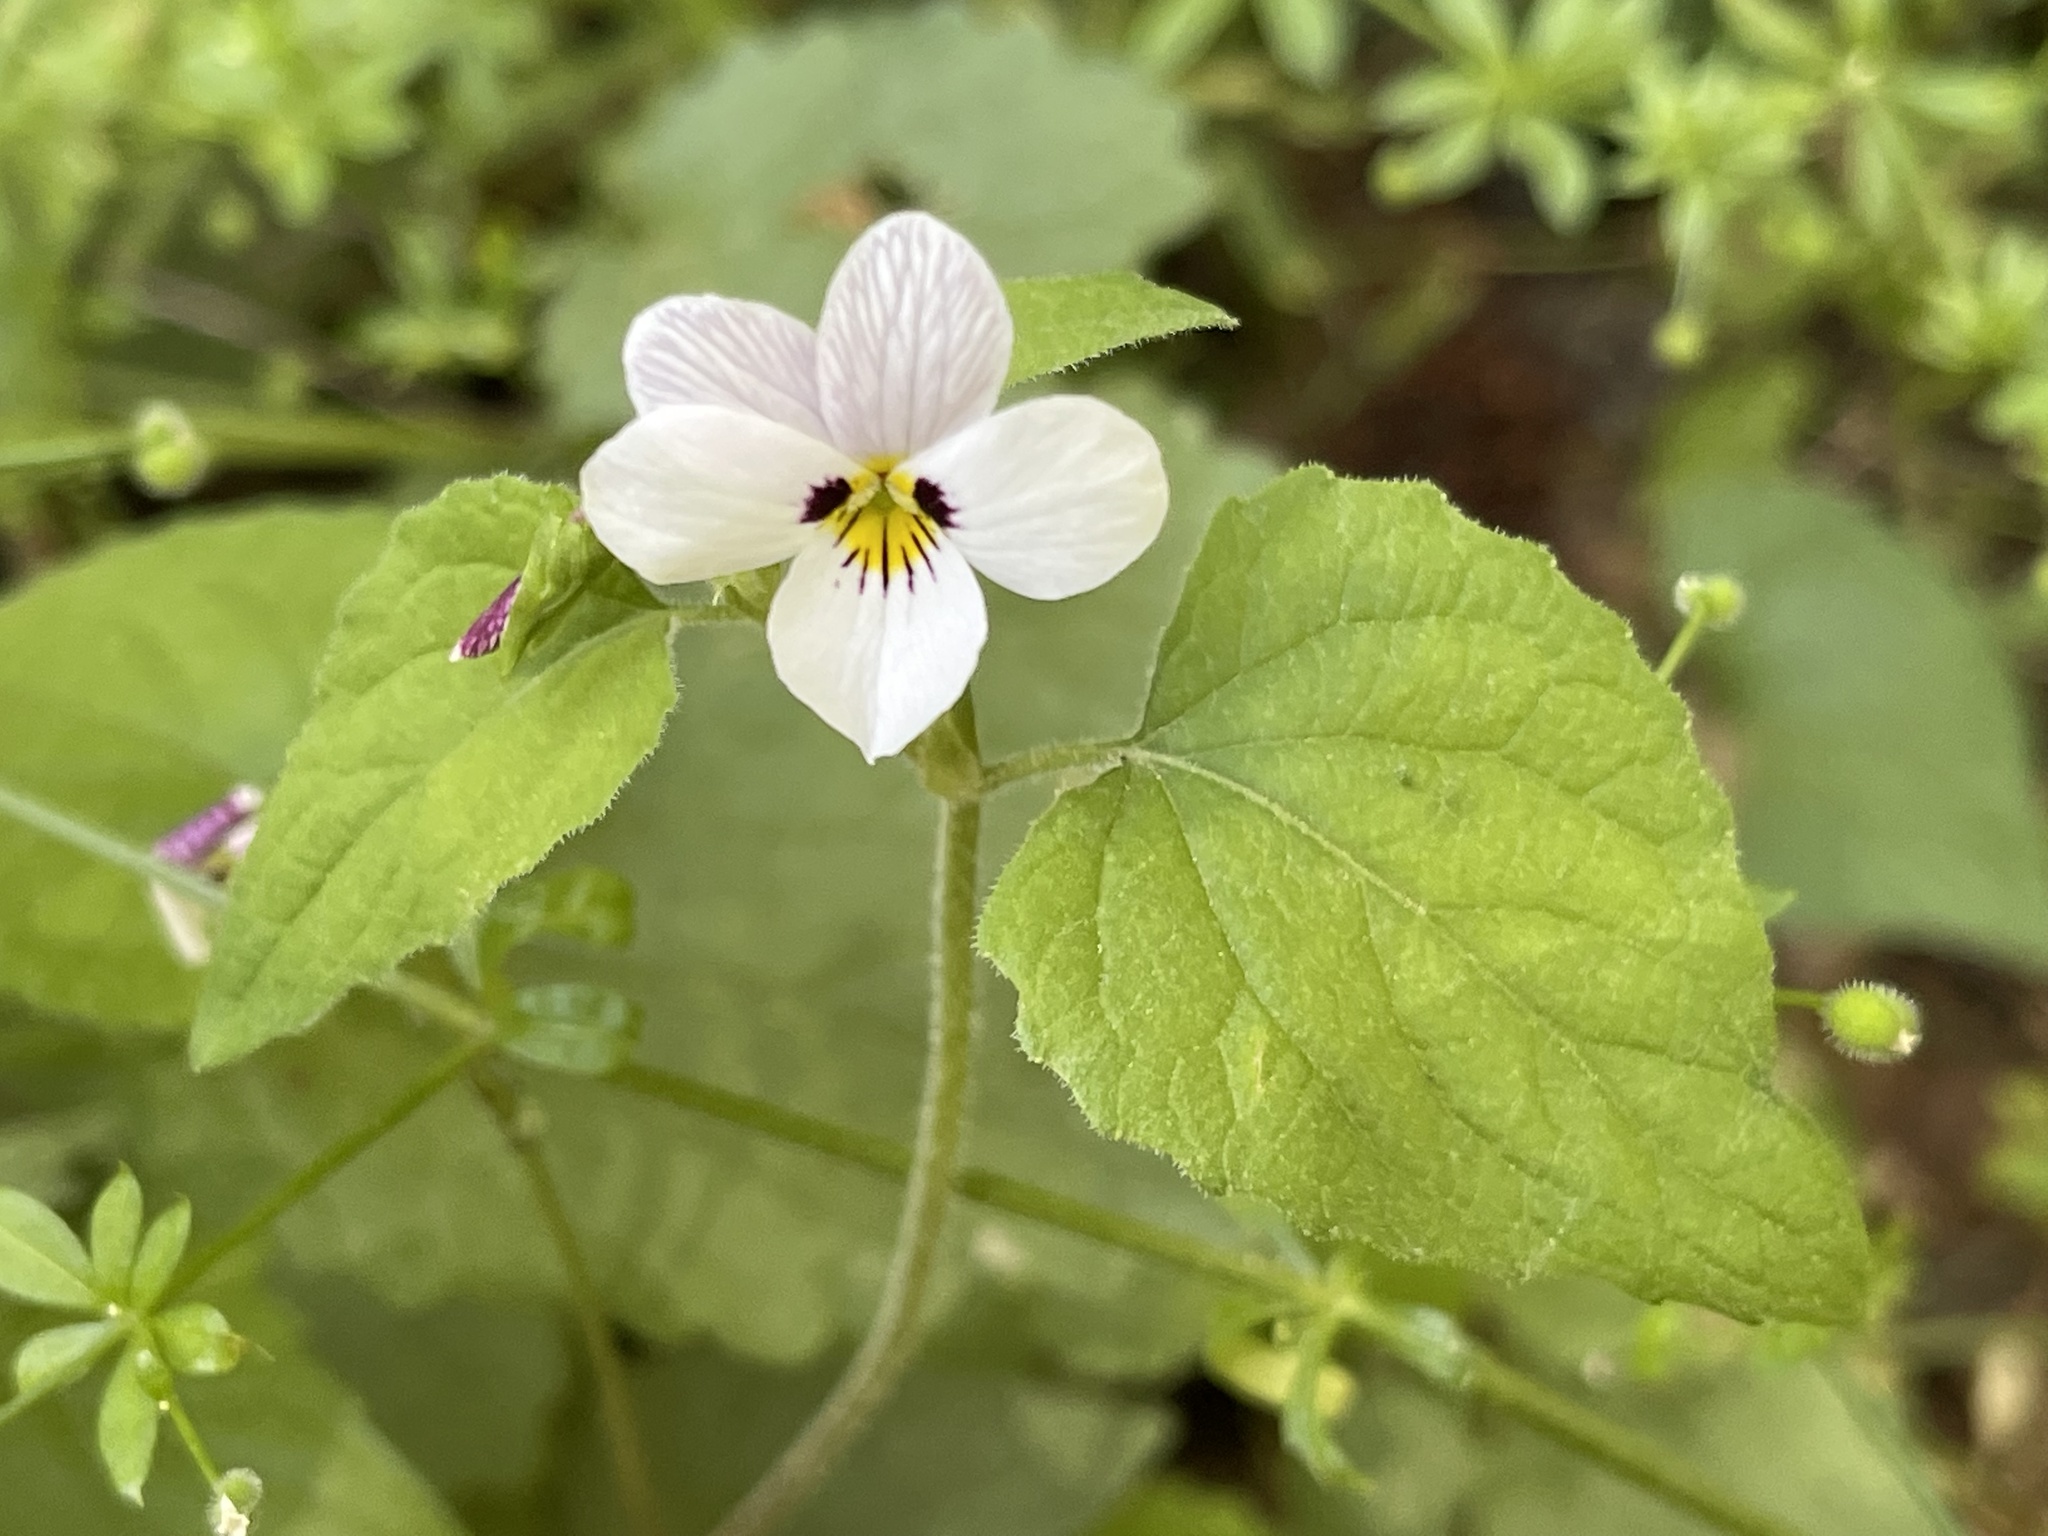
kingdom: Plantae
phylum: Tracheophyta
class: Magnoliopsida
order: Malpighiales
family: Violaceae
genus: Viola
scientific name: Viola ocellata
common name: Western heart's ease
